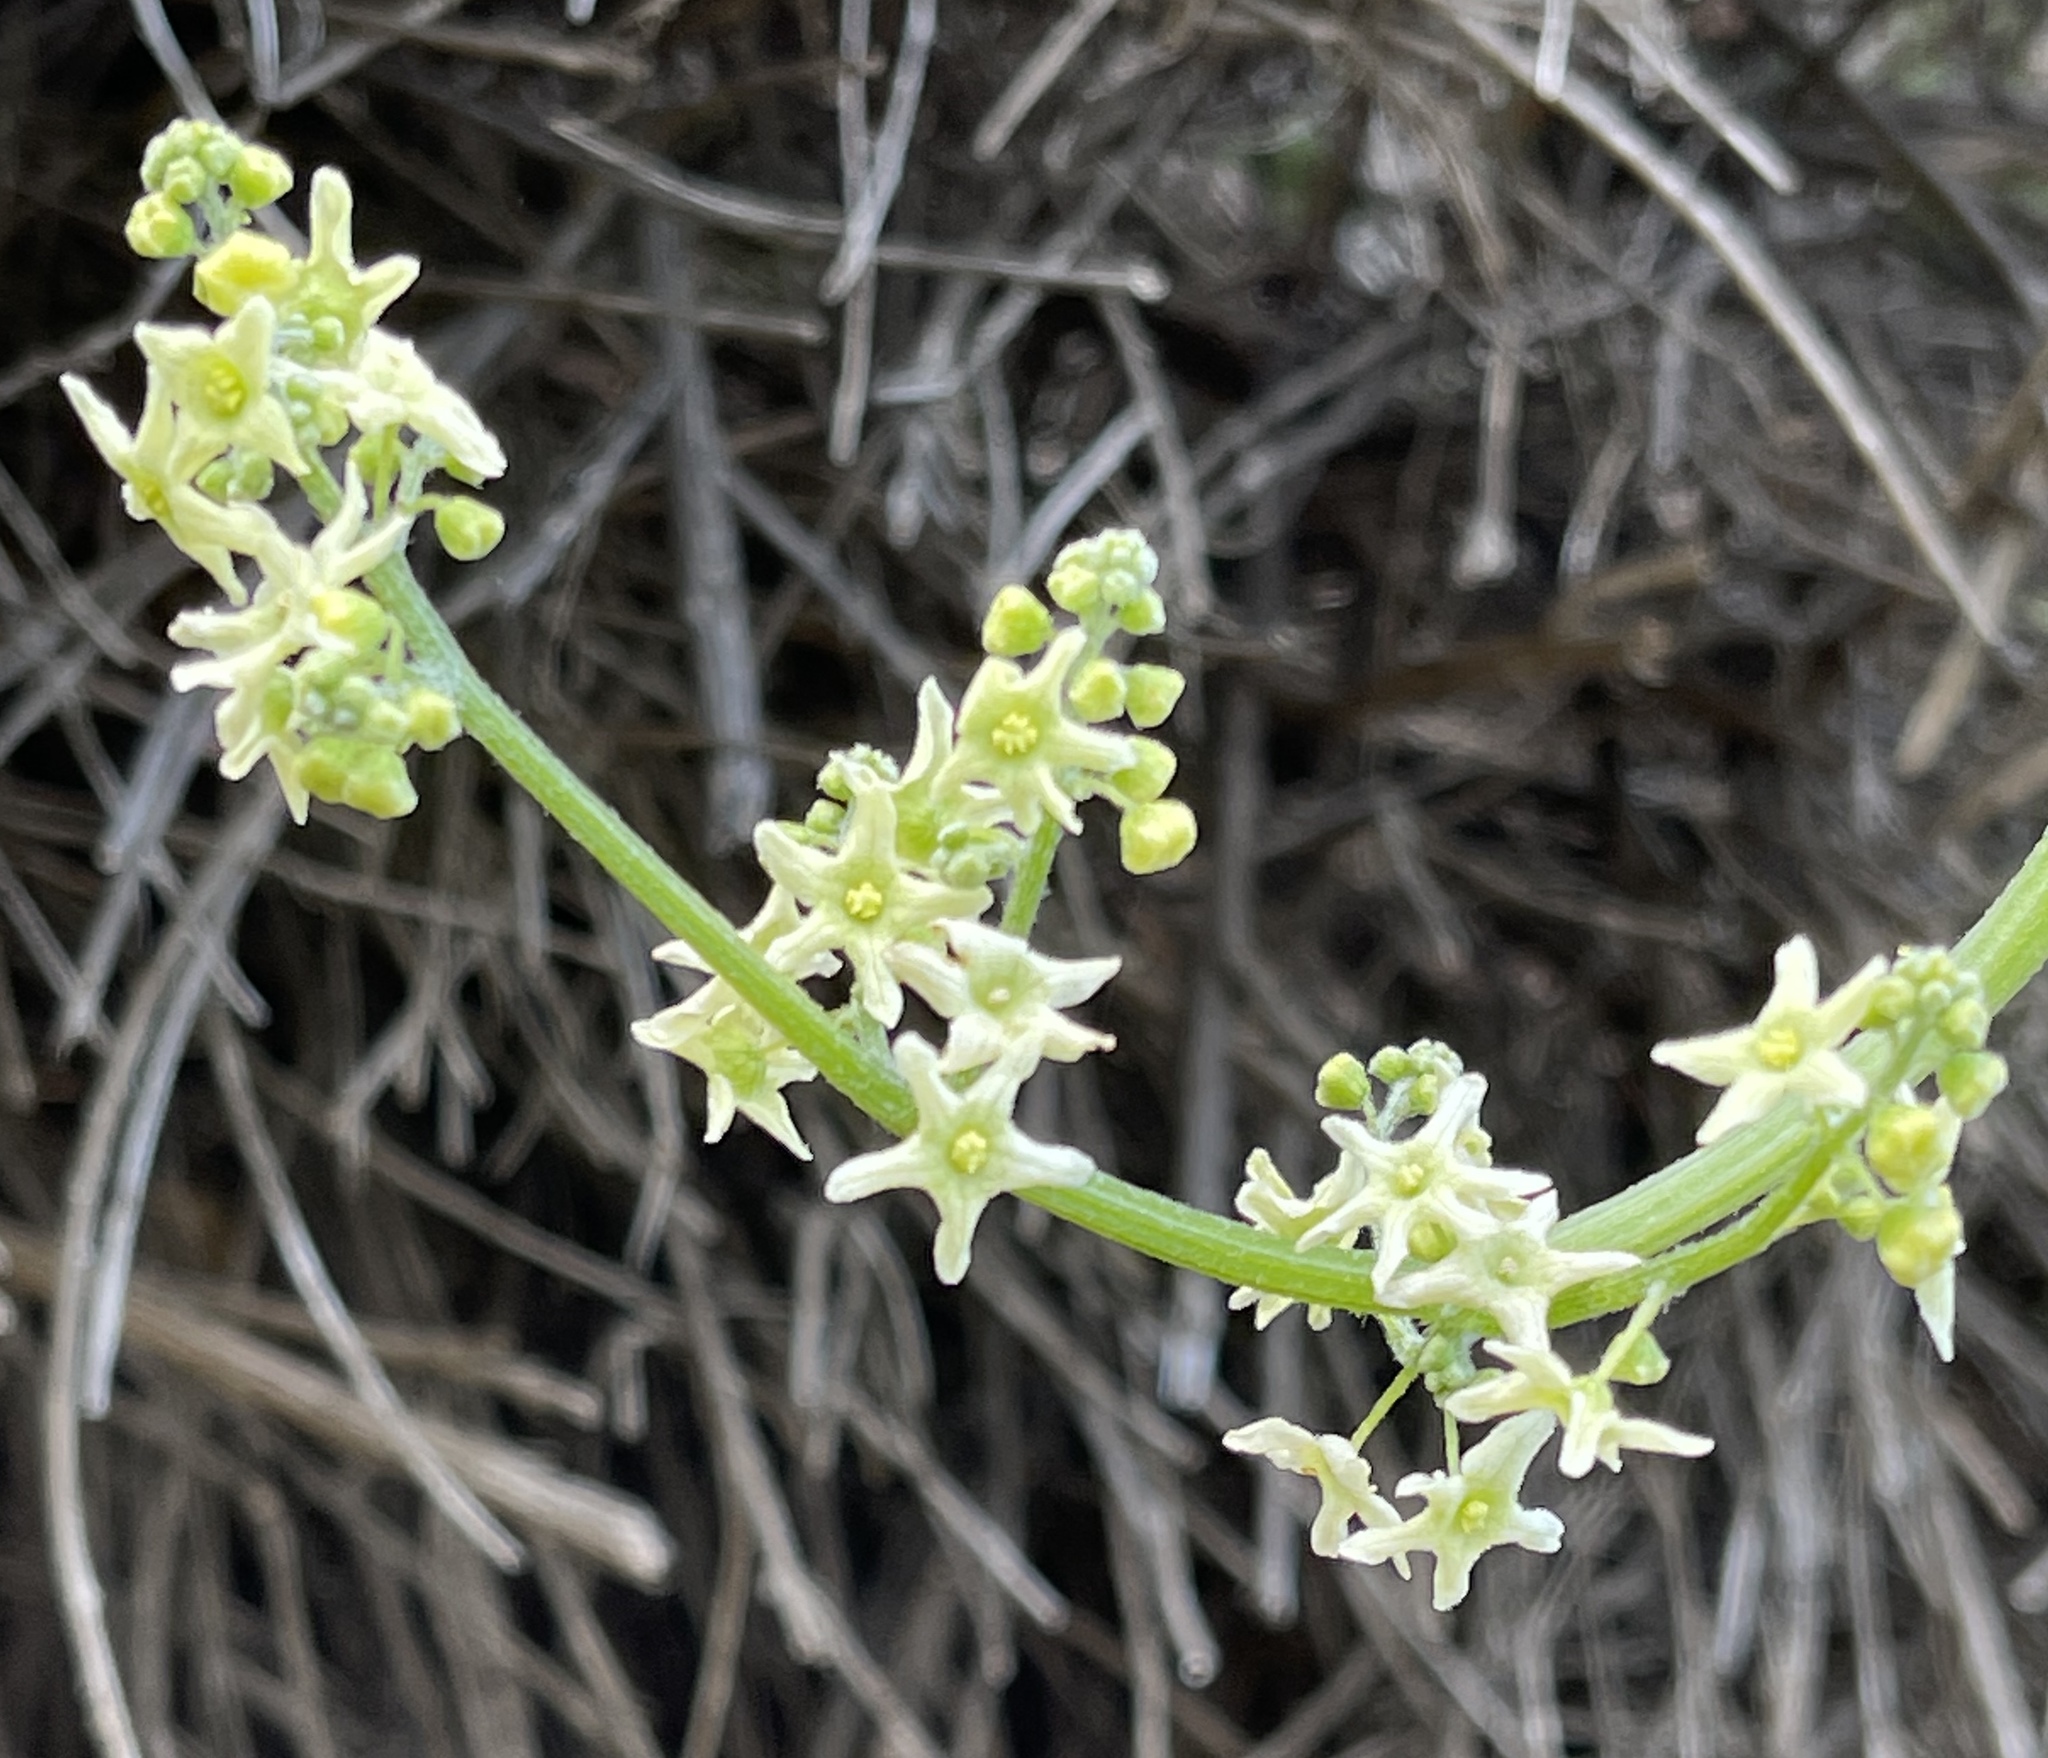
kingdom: Plantae
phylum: Tracheophyta
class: Magnoliopsida
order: Cucurbitales
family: Cucurbitaceae
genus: Marah
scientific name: Marah fabacea
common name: California manroot
